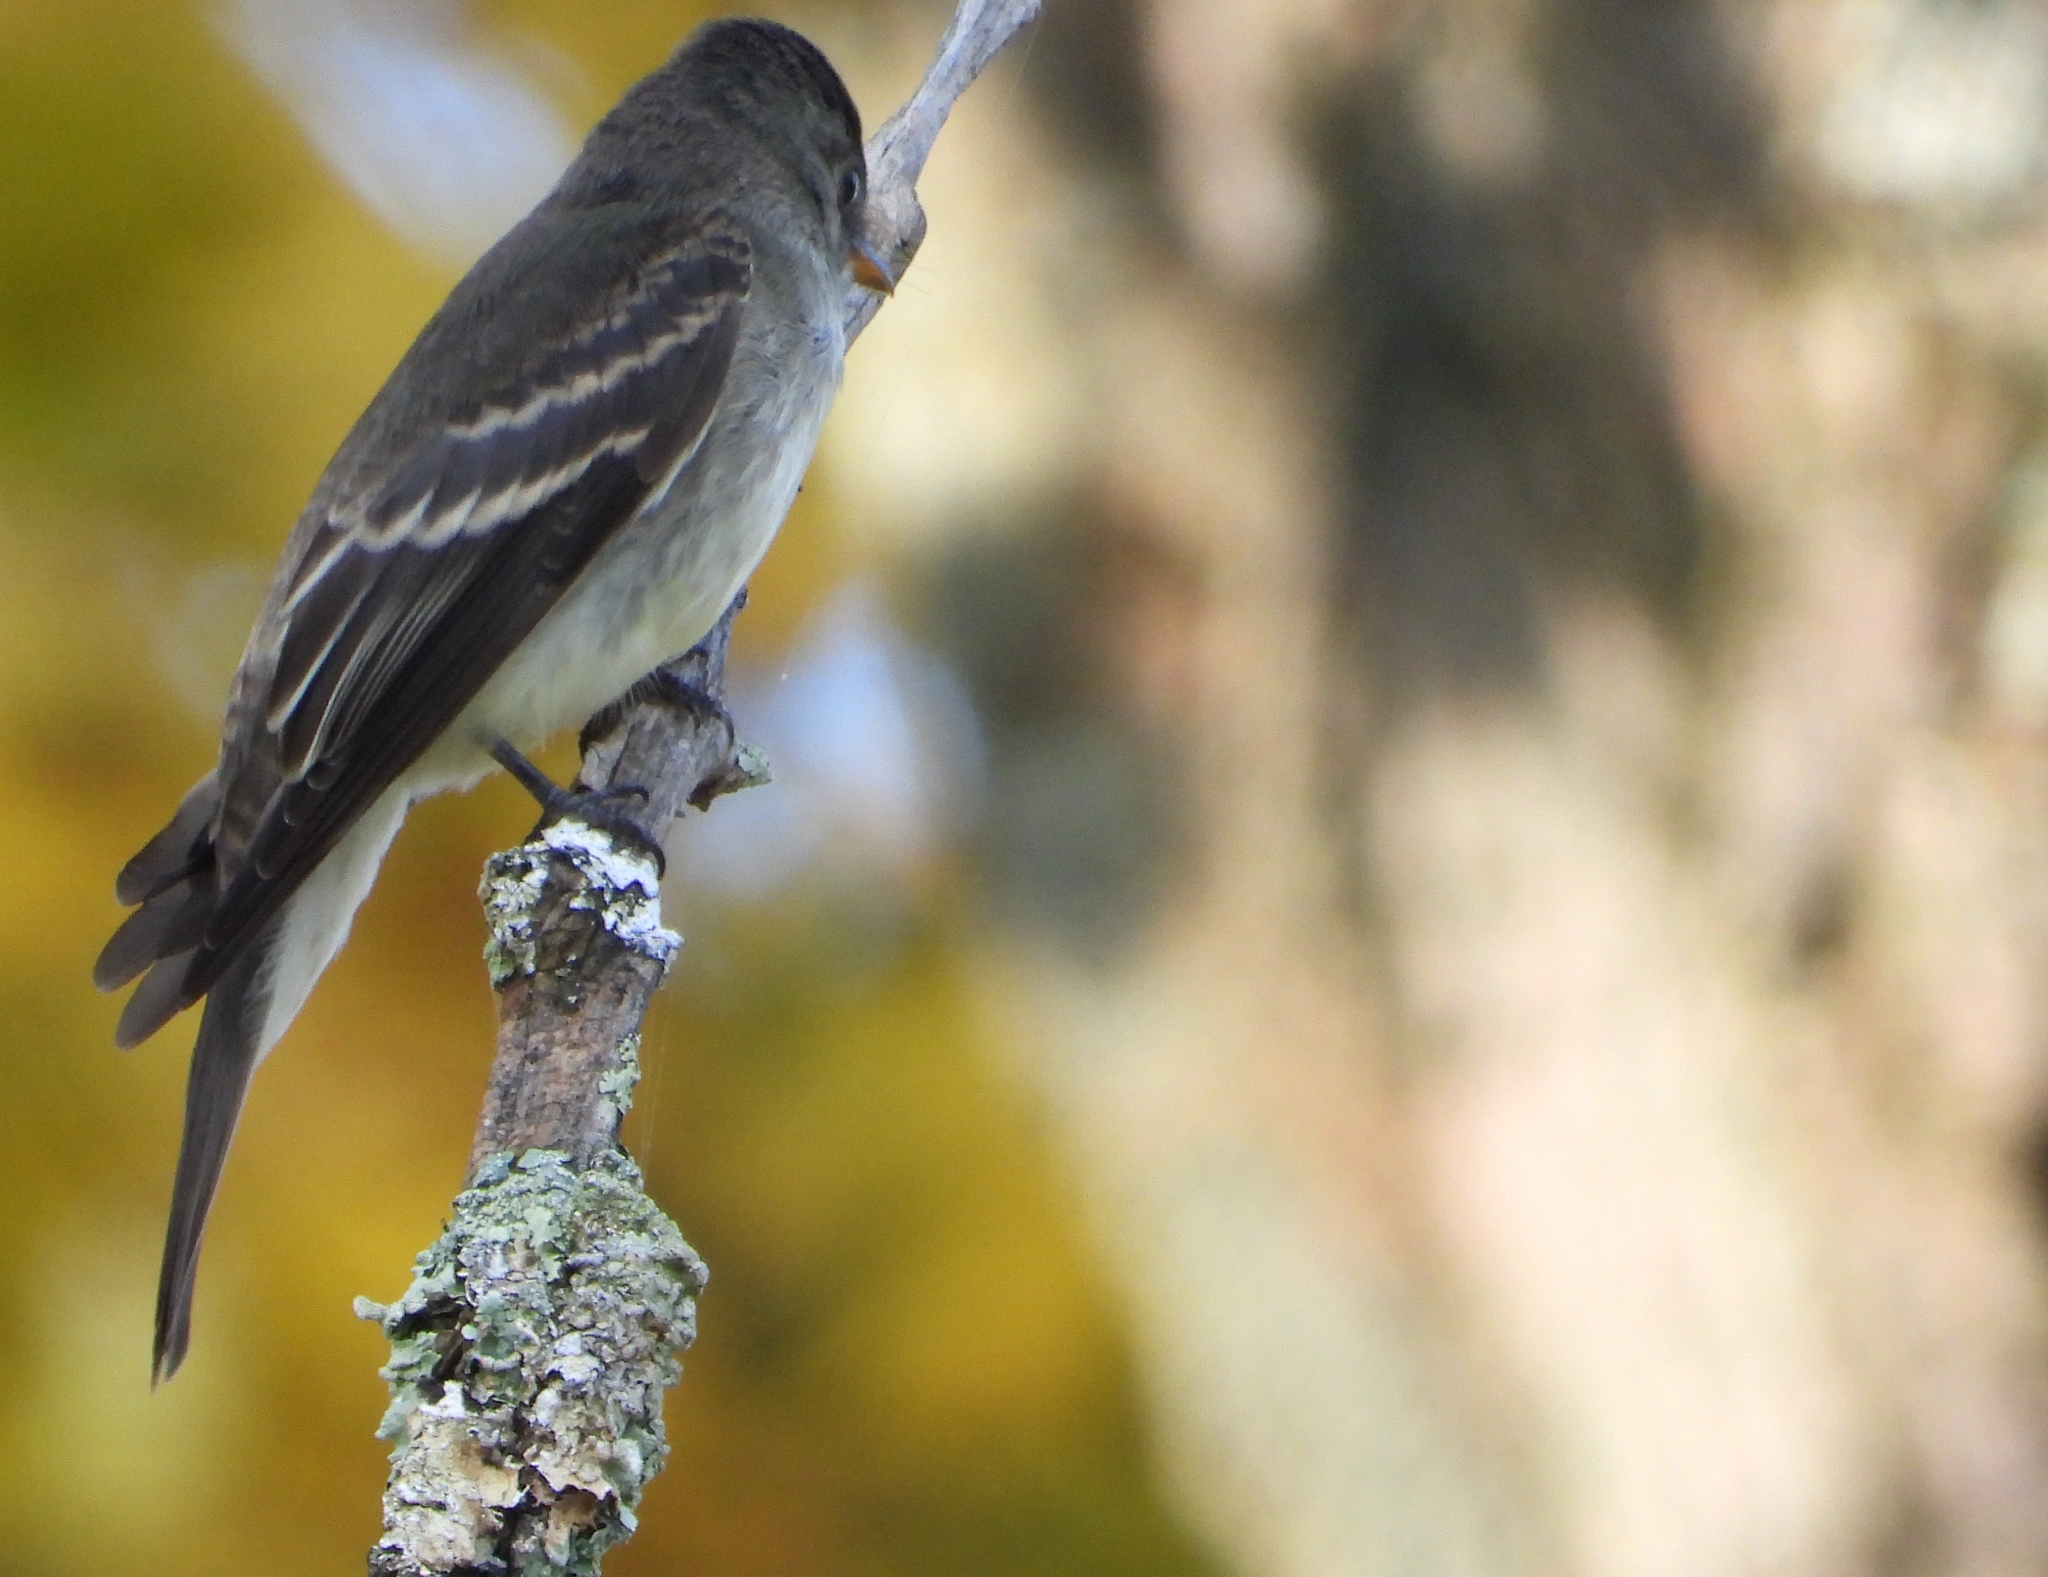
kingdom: Animalia
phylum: Chordata
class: Aves
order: Passeriformes
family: Tyrannidae
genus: Contopus
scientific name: Contopus virens
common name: Eastern wood-pewee
